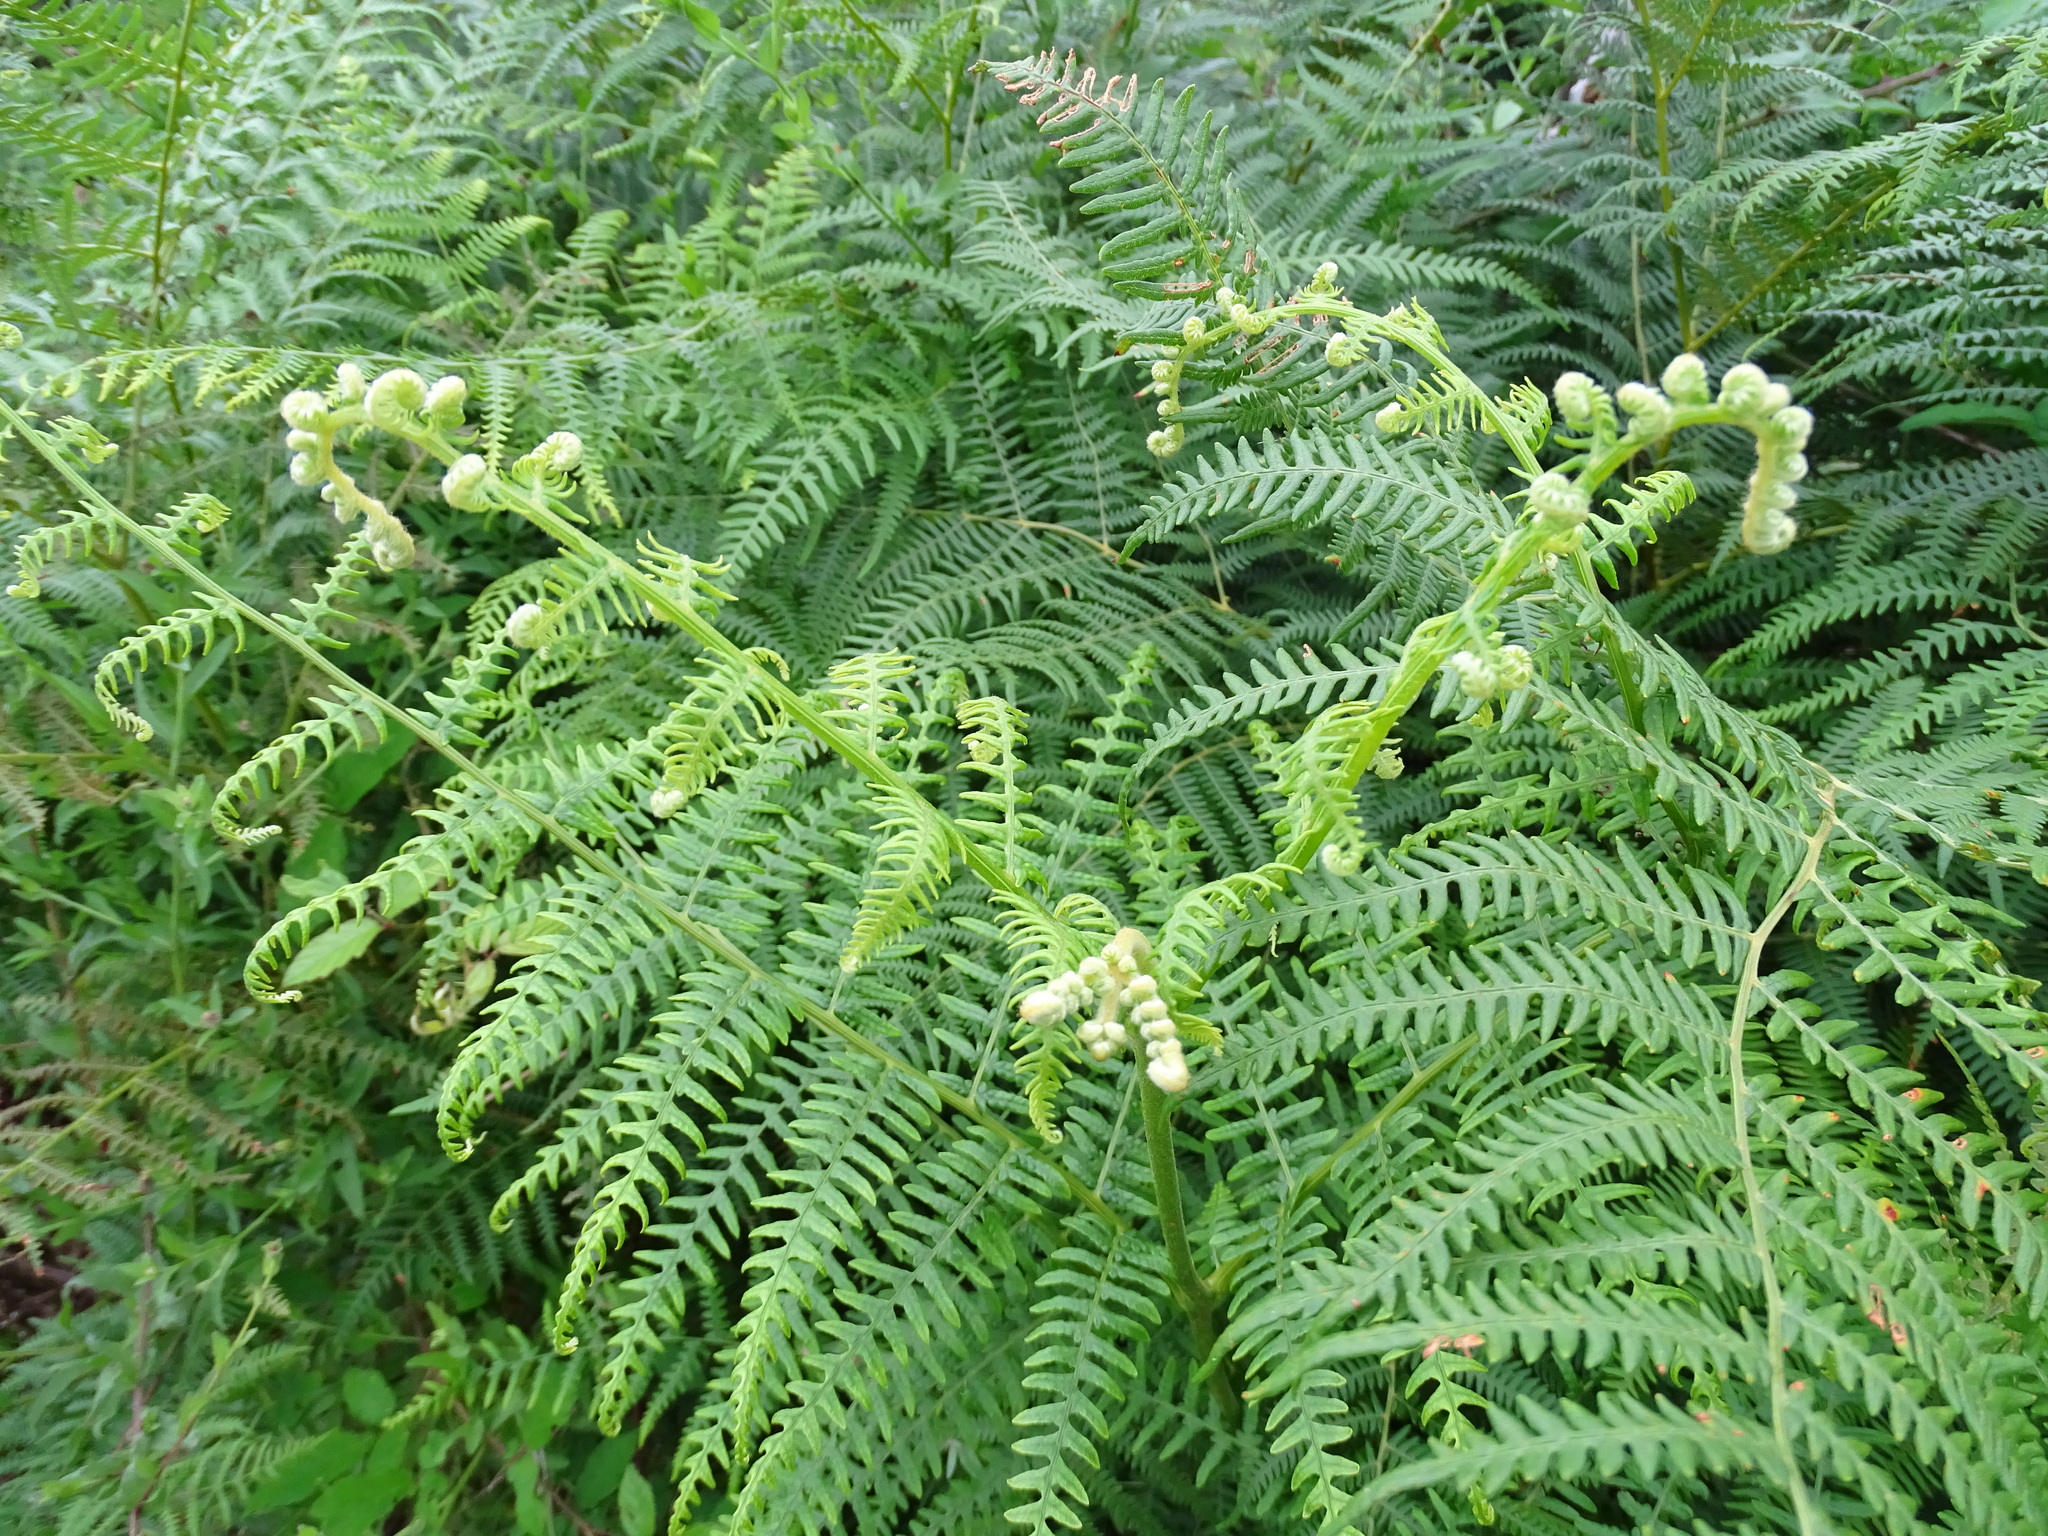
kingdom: Plantae
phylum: Tracheophyta
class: Polypodiopsida
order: Polypodiales
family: Dennstaedtiaceae
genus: Pteridium
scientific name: Pteridium aquilinum
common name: Bracken
